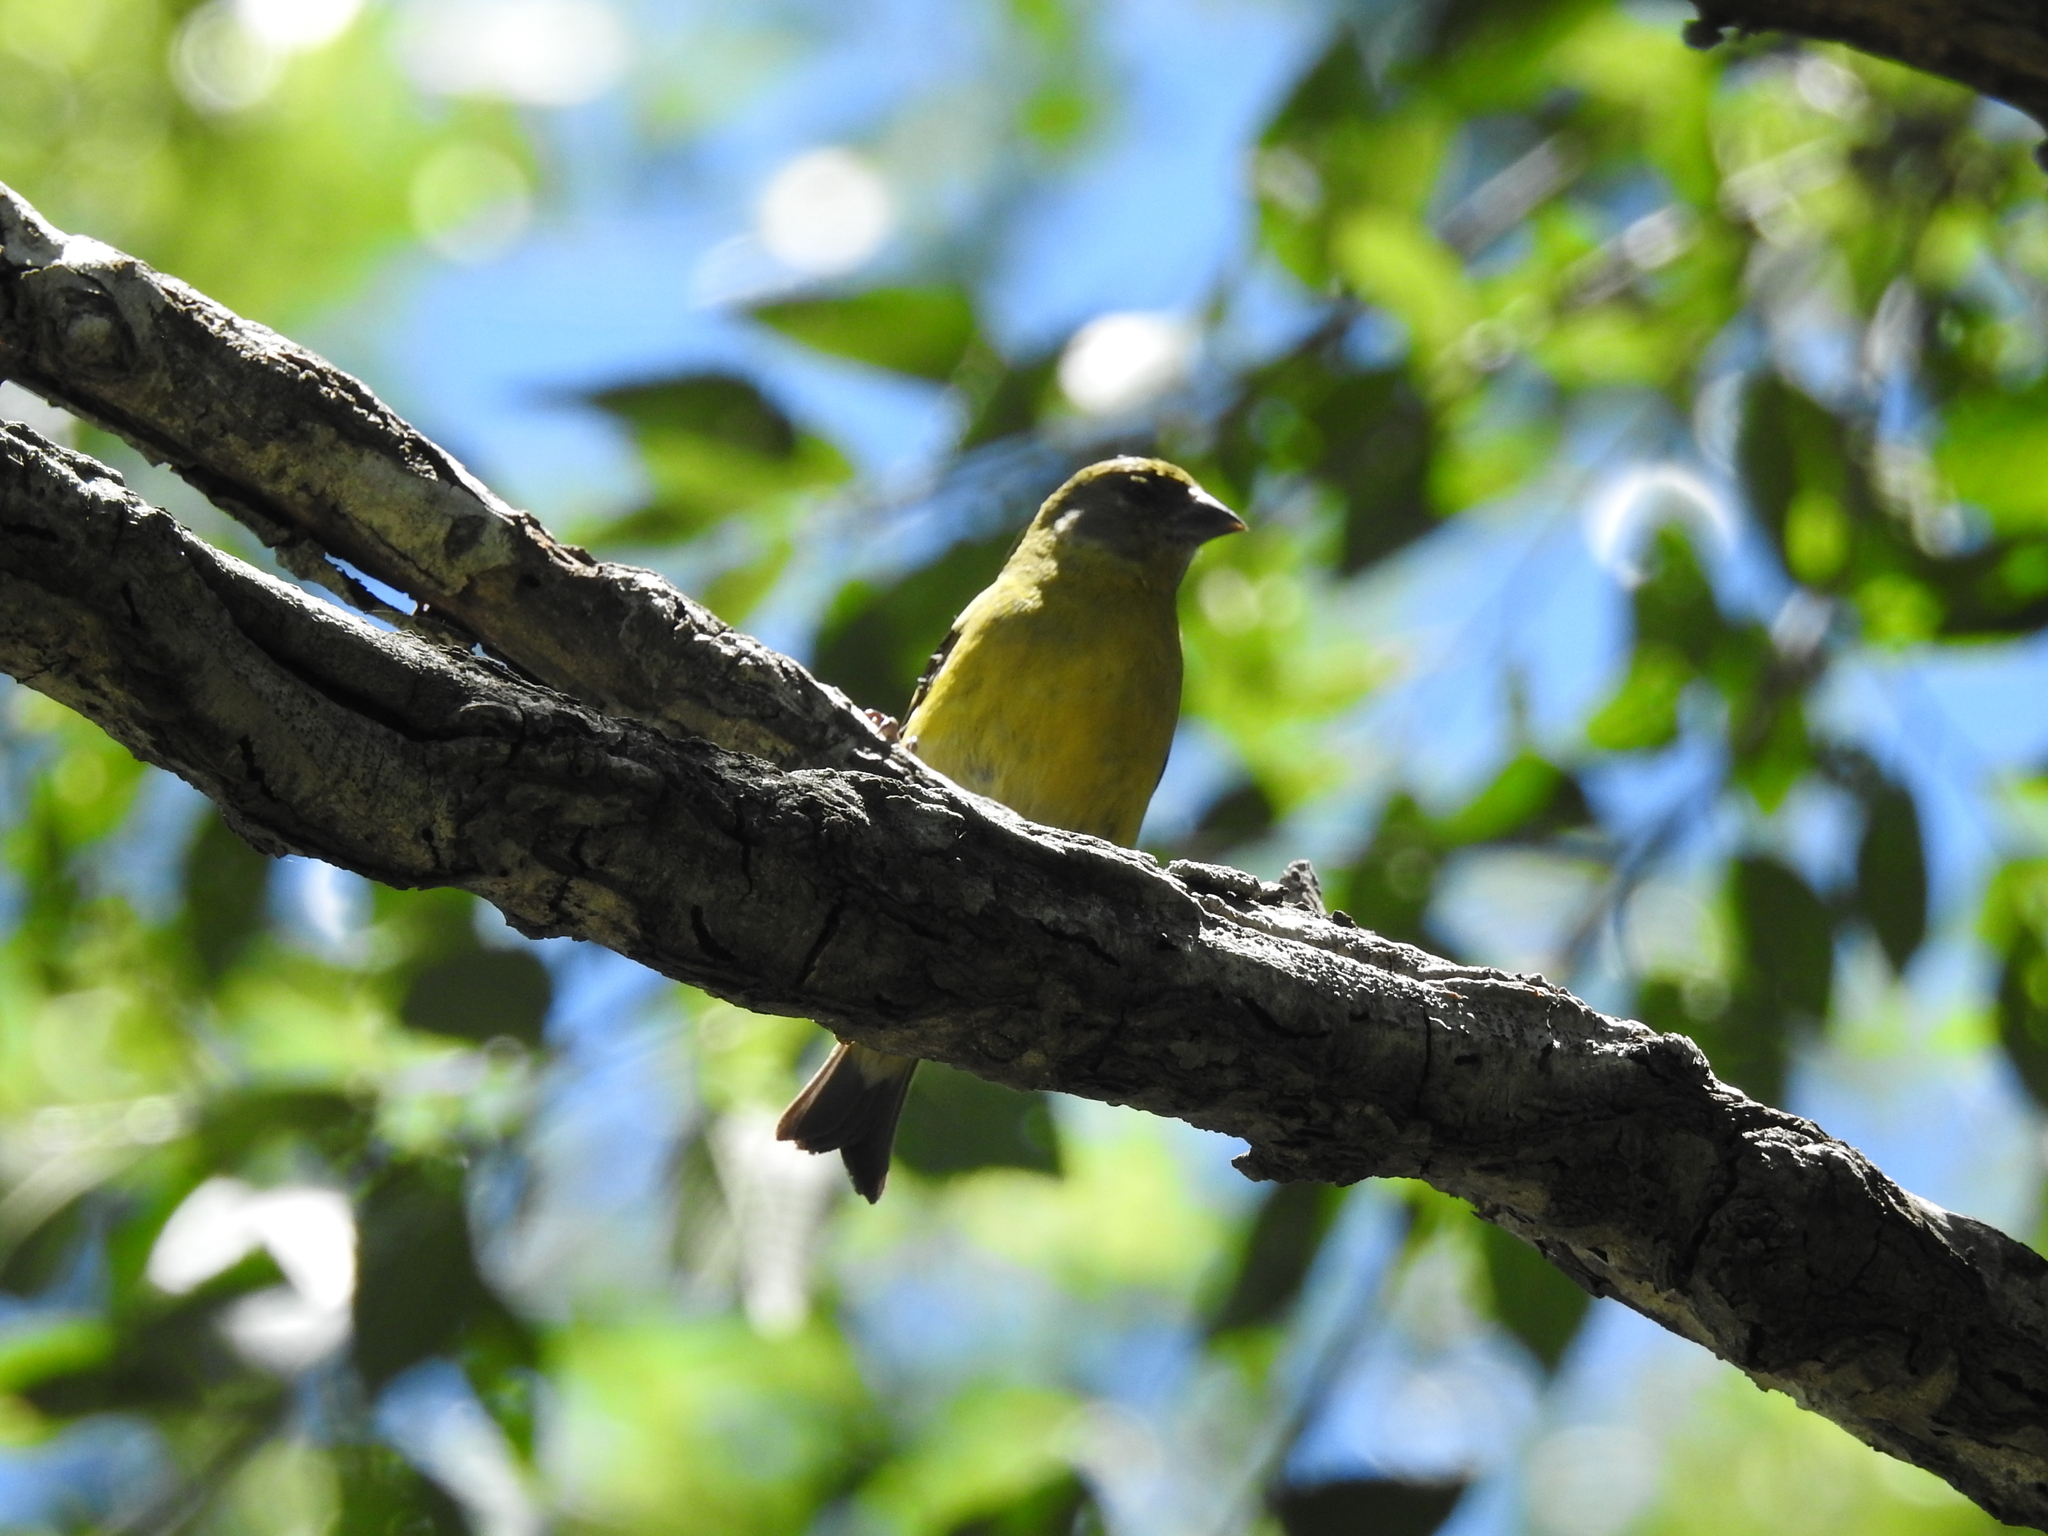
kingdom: Animalia
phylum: Chordata
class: Aves
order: Passeriformes
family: Fringillidae
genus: Spinus
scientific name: Spinus magellanicus
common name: Hooded siskin
